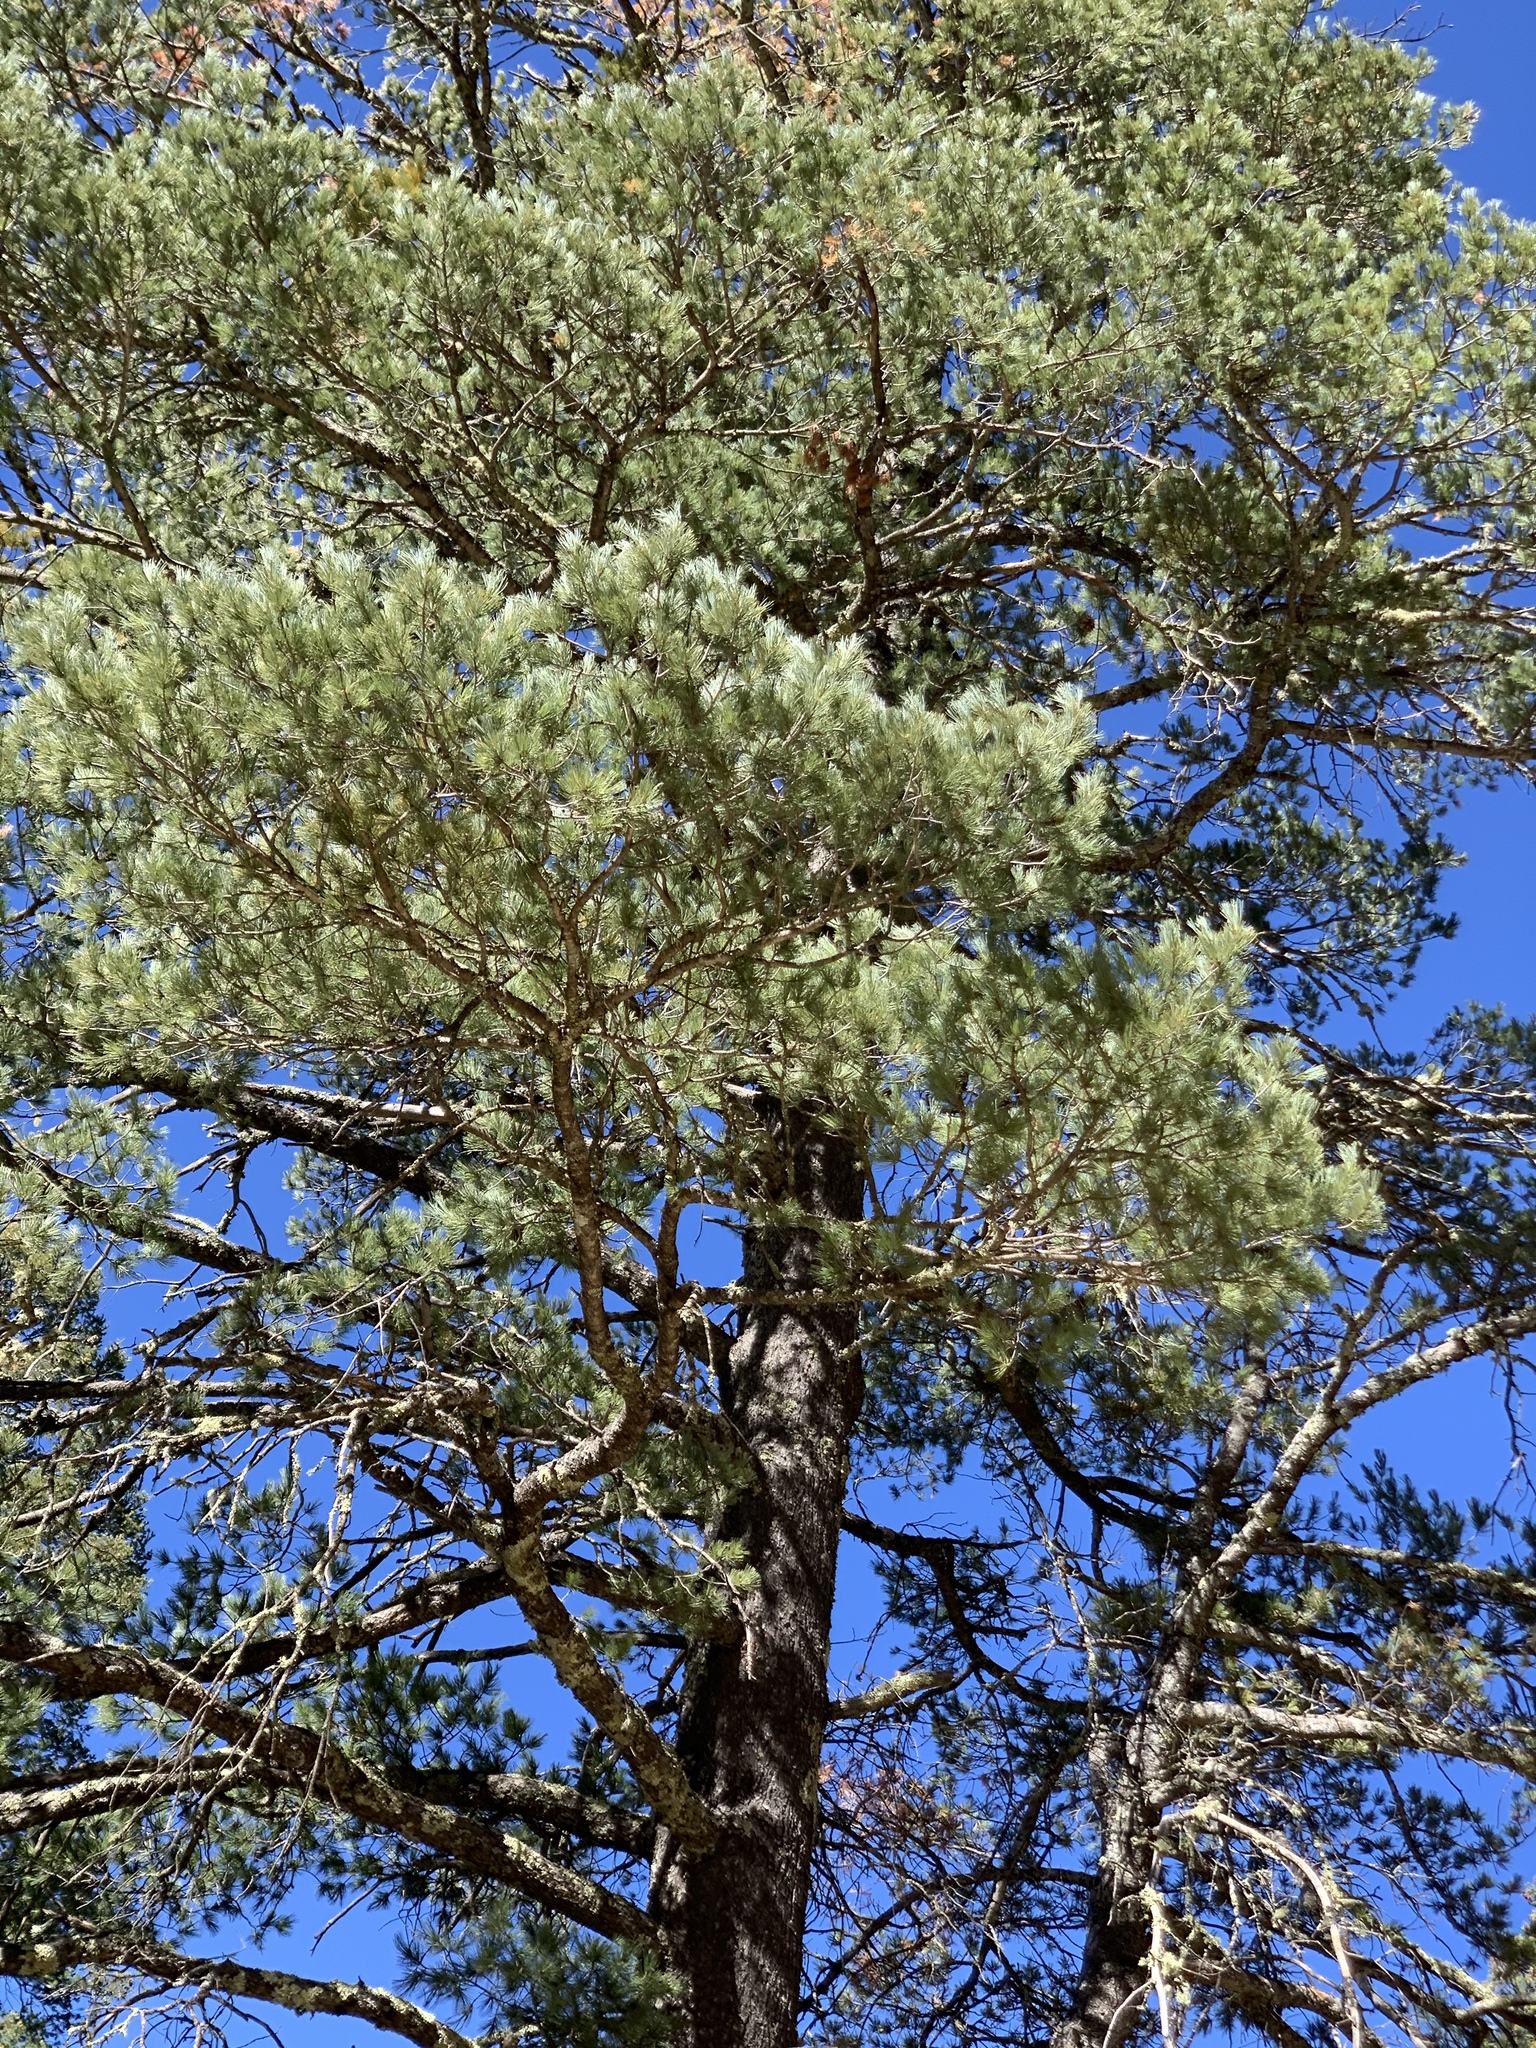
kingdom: Plantae
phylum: Tracheophyta
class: Pinopsida
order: Pinales
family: Pinaceae
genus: Pinus
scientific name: Pinus strobiformis
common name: Southwestern white pine
